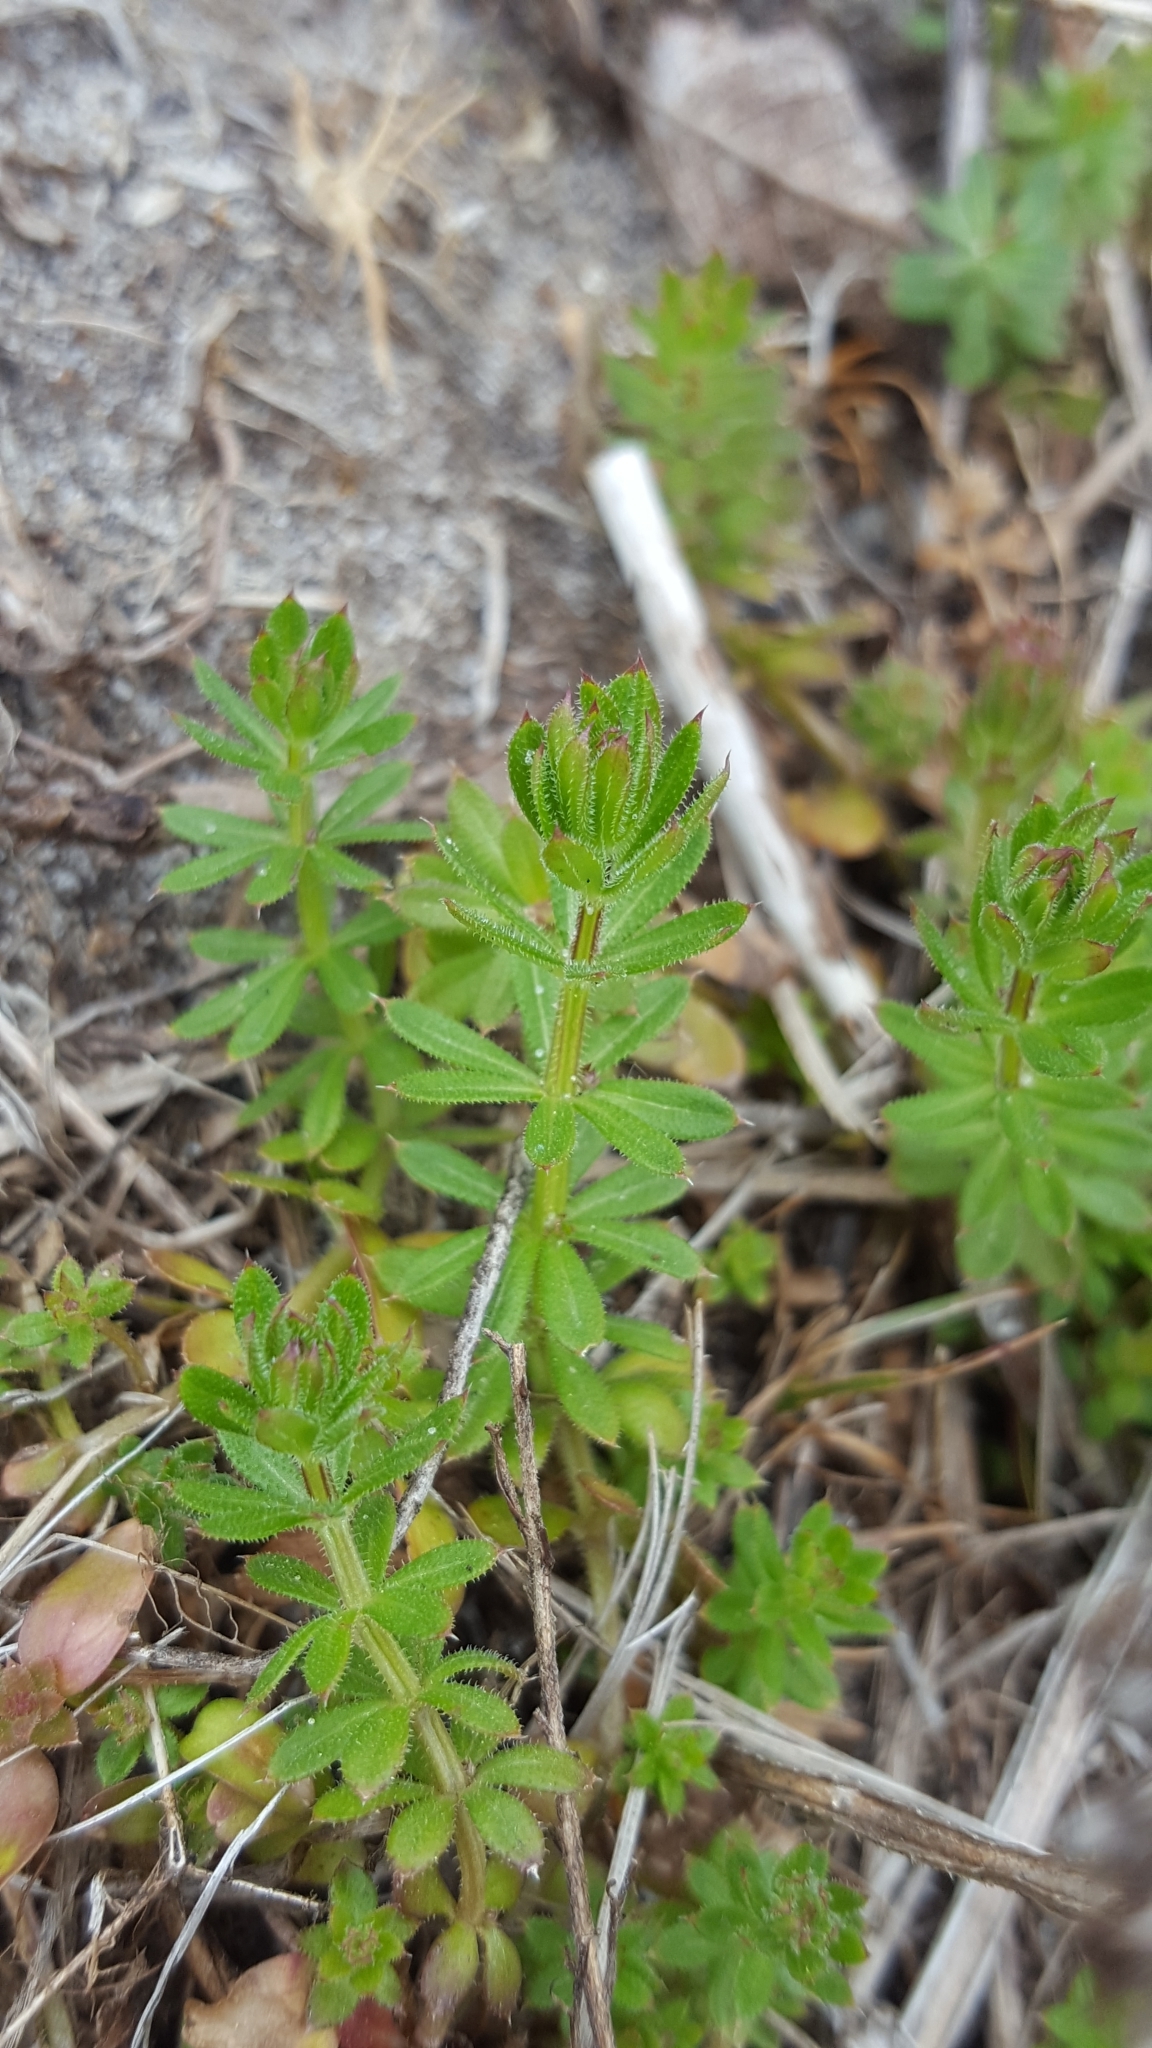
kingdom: Plantae
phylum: Tracheophyta
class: Magnoliopsida
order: Gentianales
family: Rubiaceae
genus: Galium
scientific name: Galium mollugo
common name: Hedge bedstraw
